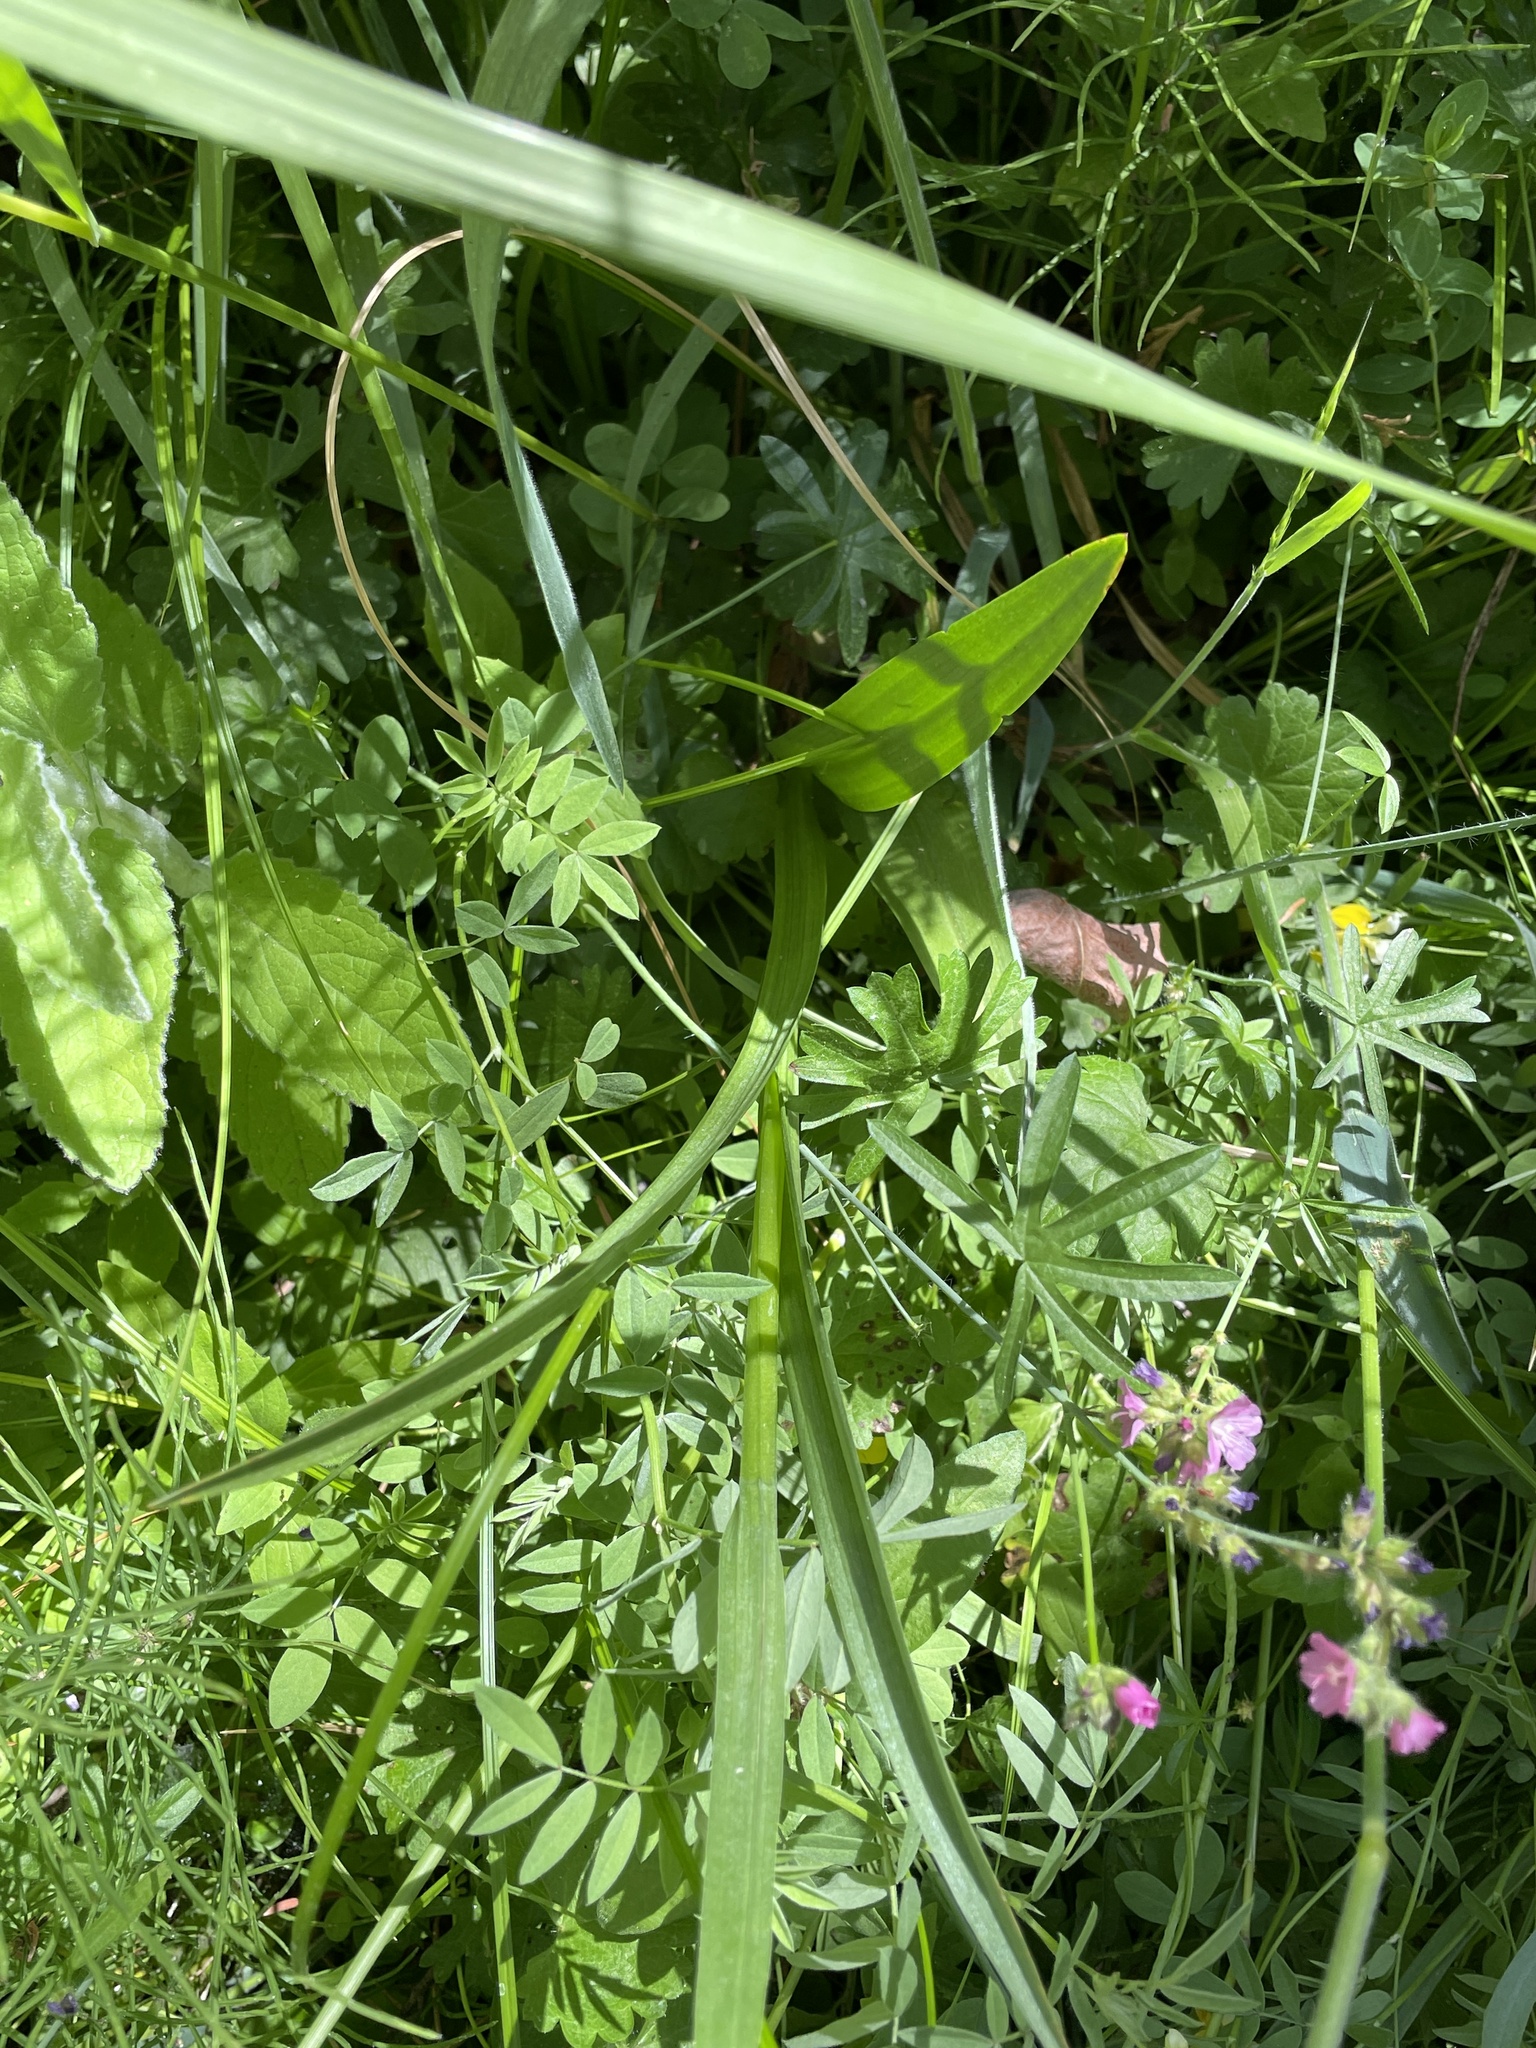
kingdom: Plantae
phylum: Tracheophyta
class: Liliopsida
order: Asparagales
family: Orchidaceae
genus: Platanthera
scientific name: Platanthera dilatata
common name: Bog candles
